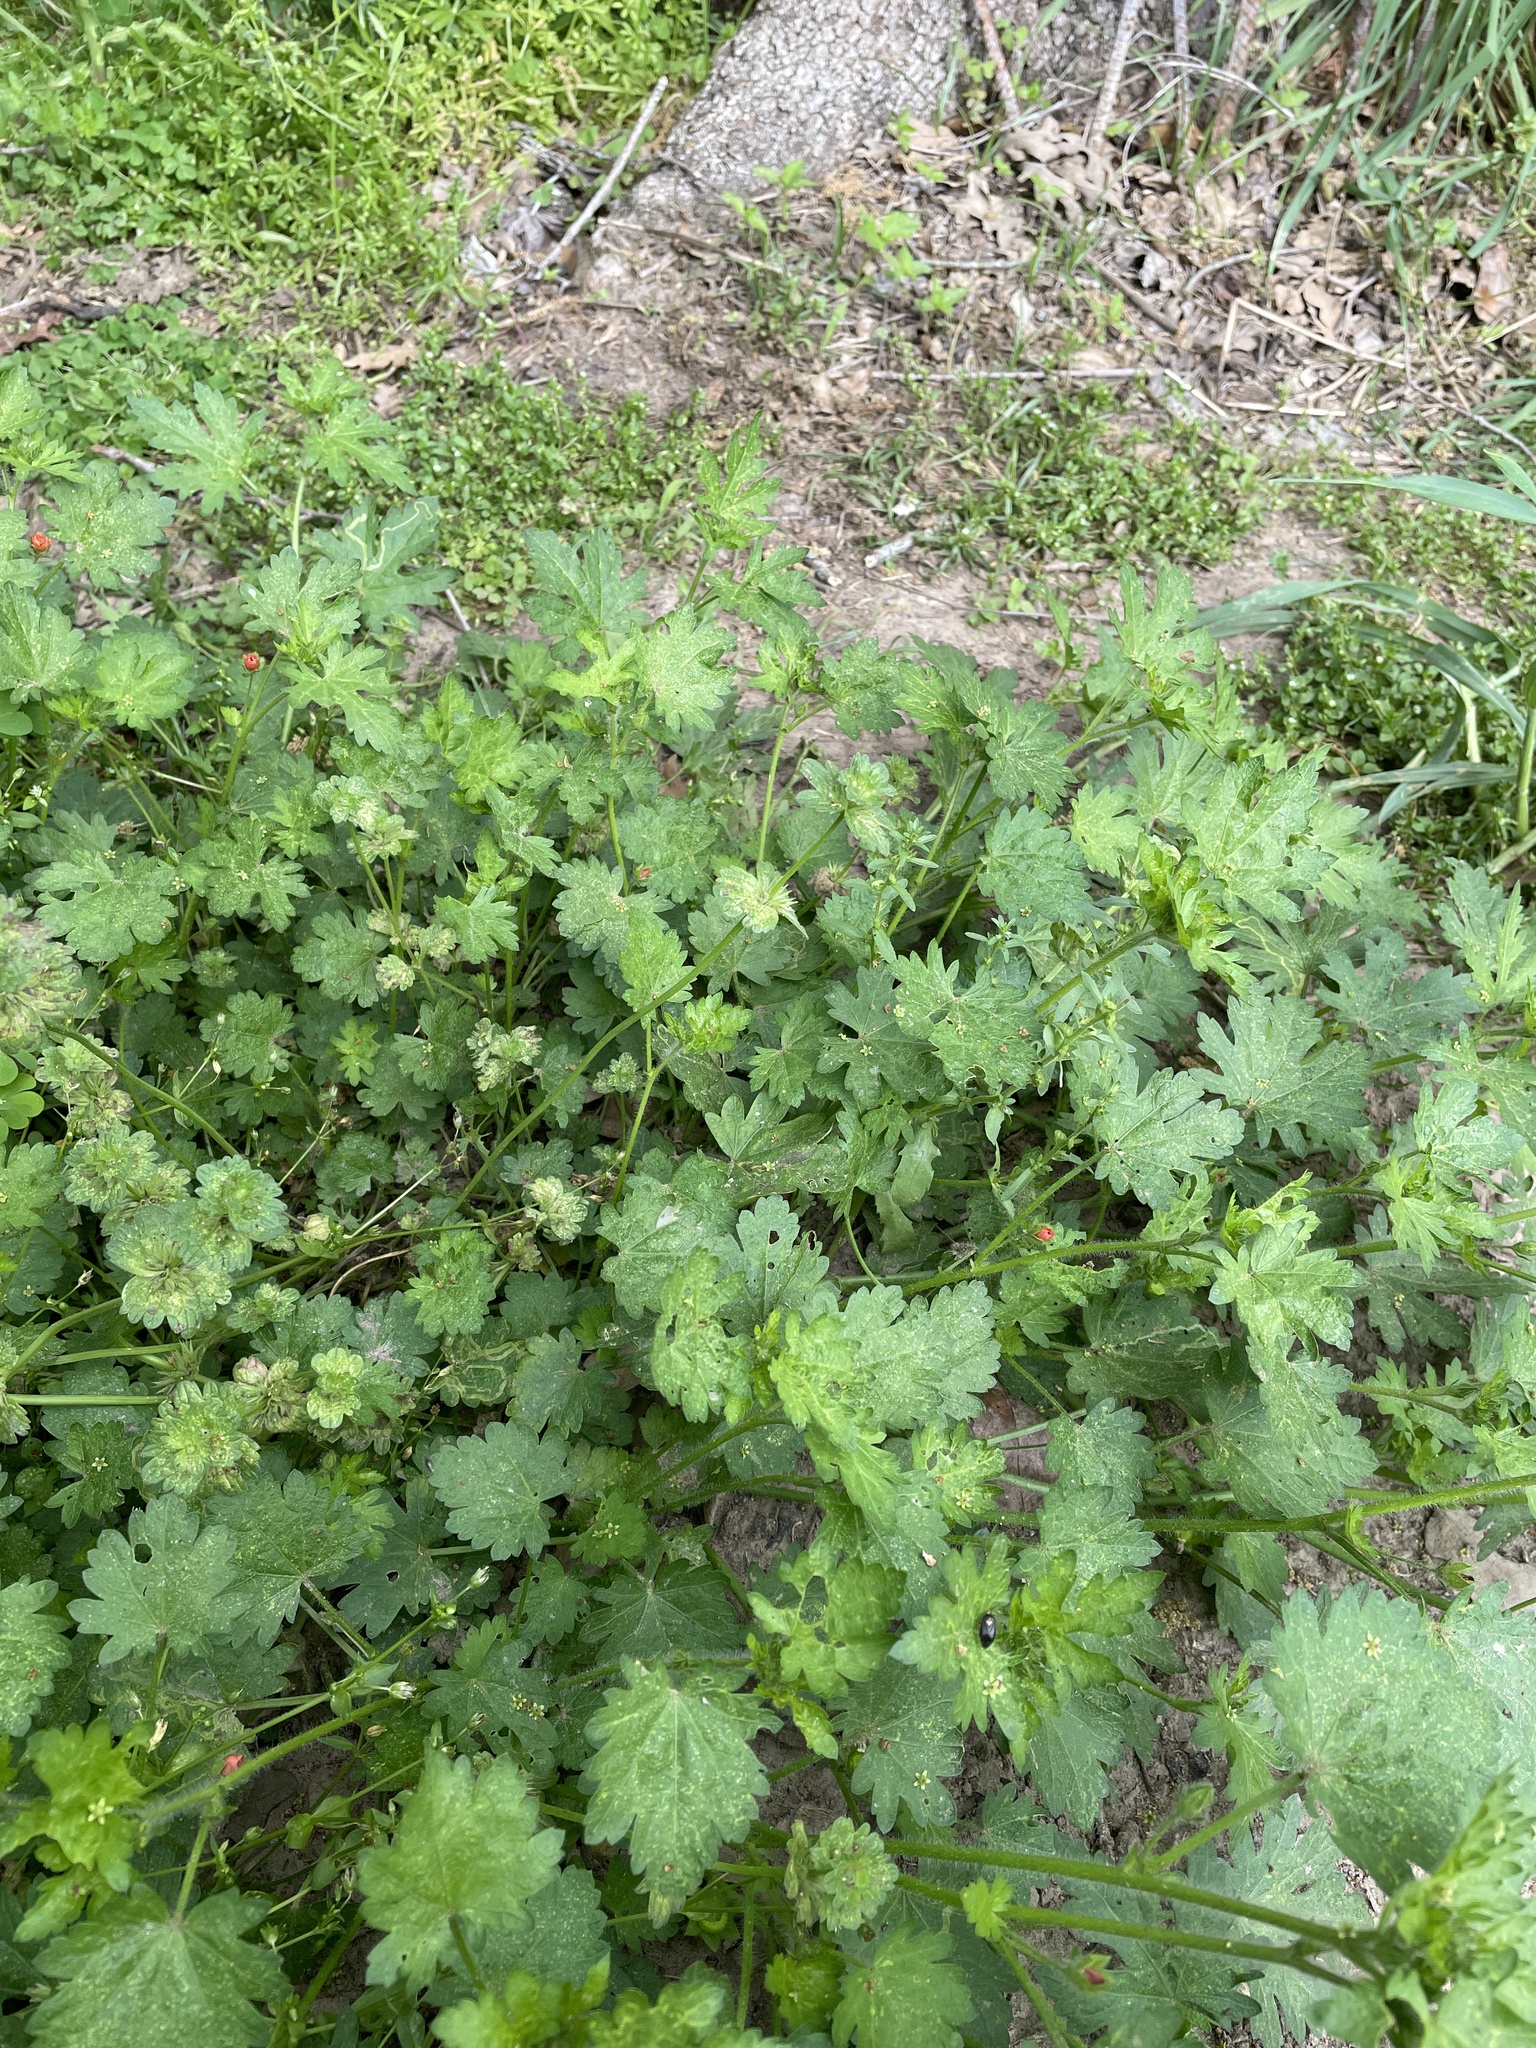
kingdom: Plantae
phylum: Tracheophyta
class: Magnoliopsida
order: Malvales
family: Malvaceae
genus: Modiola
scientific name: Modiola caroliniana
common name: Carolina bristlemallow
